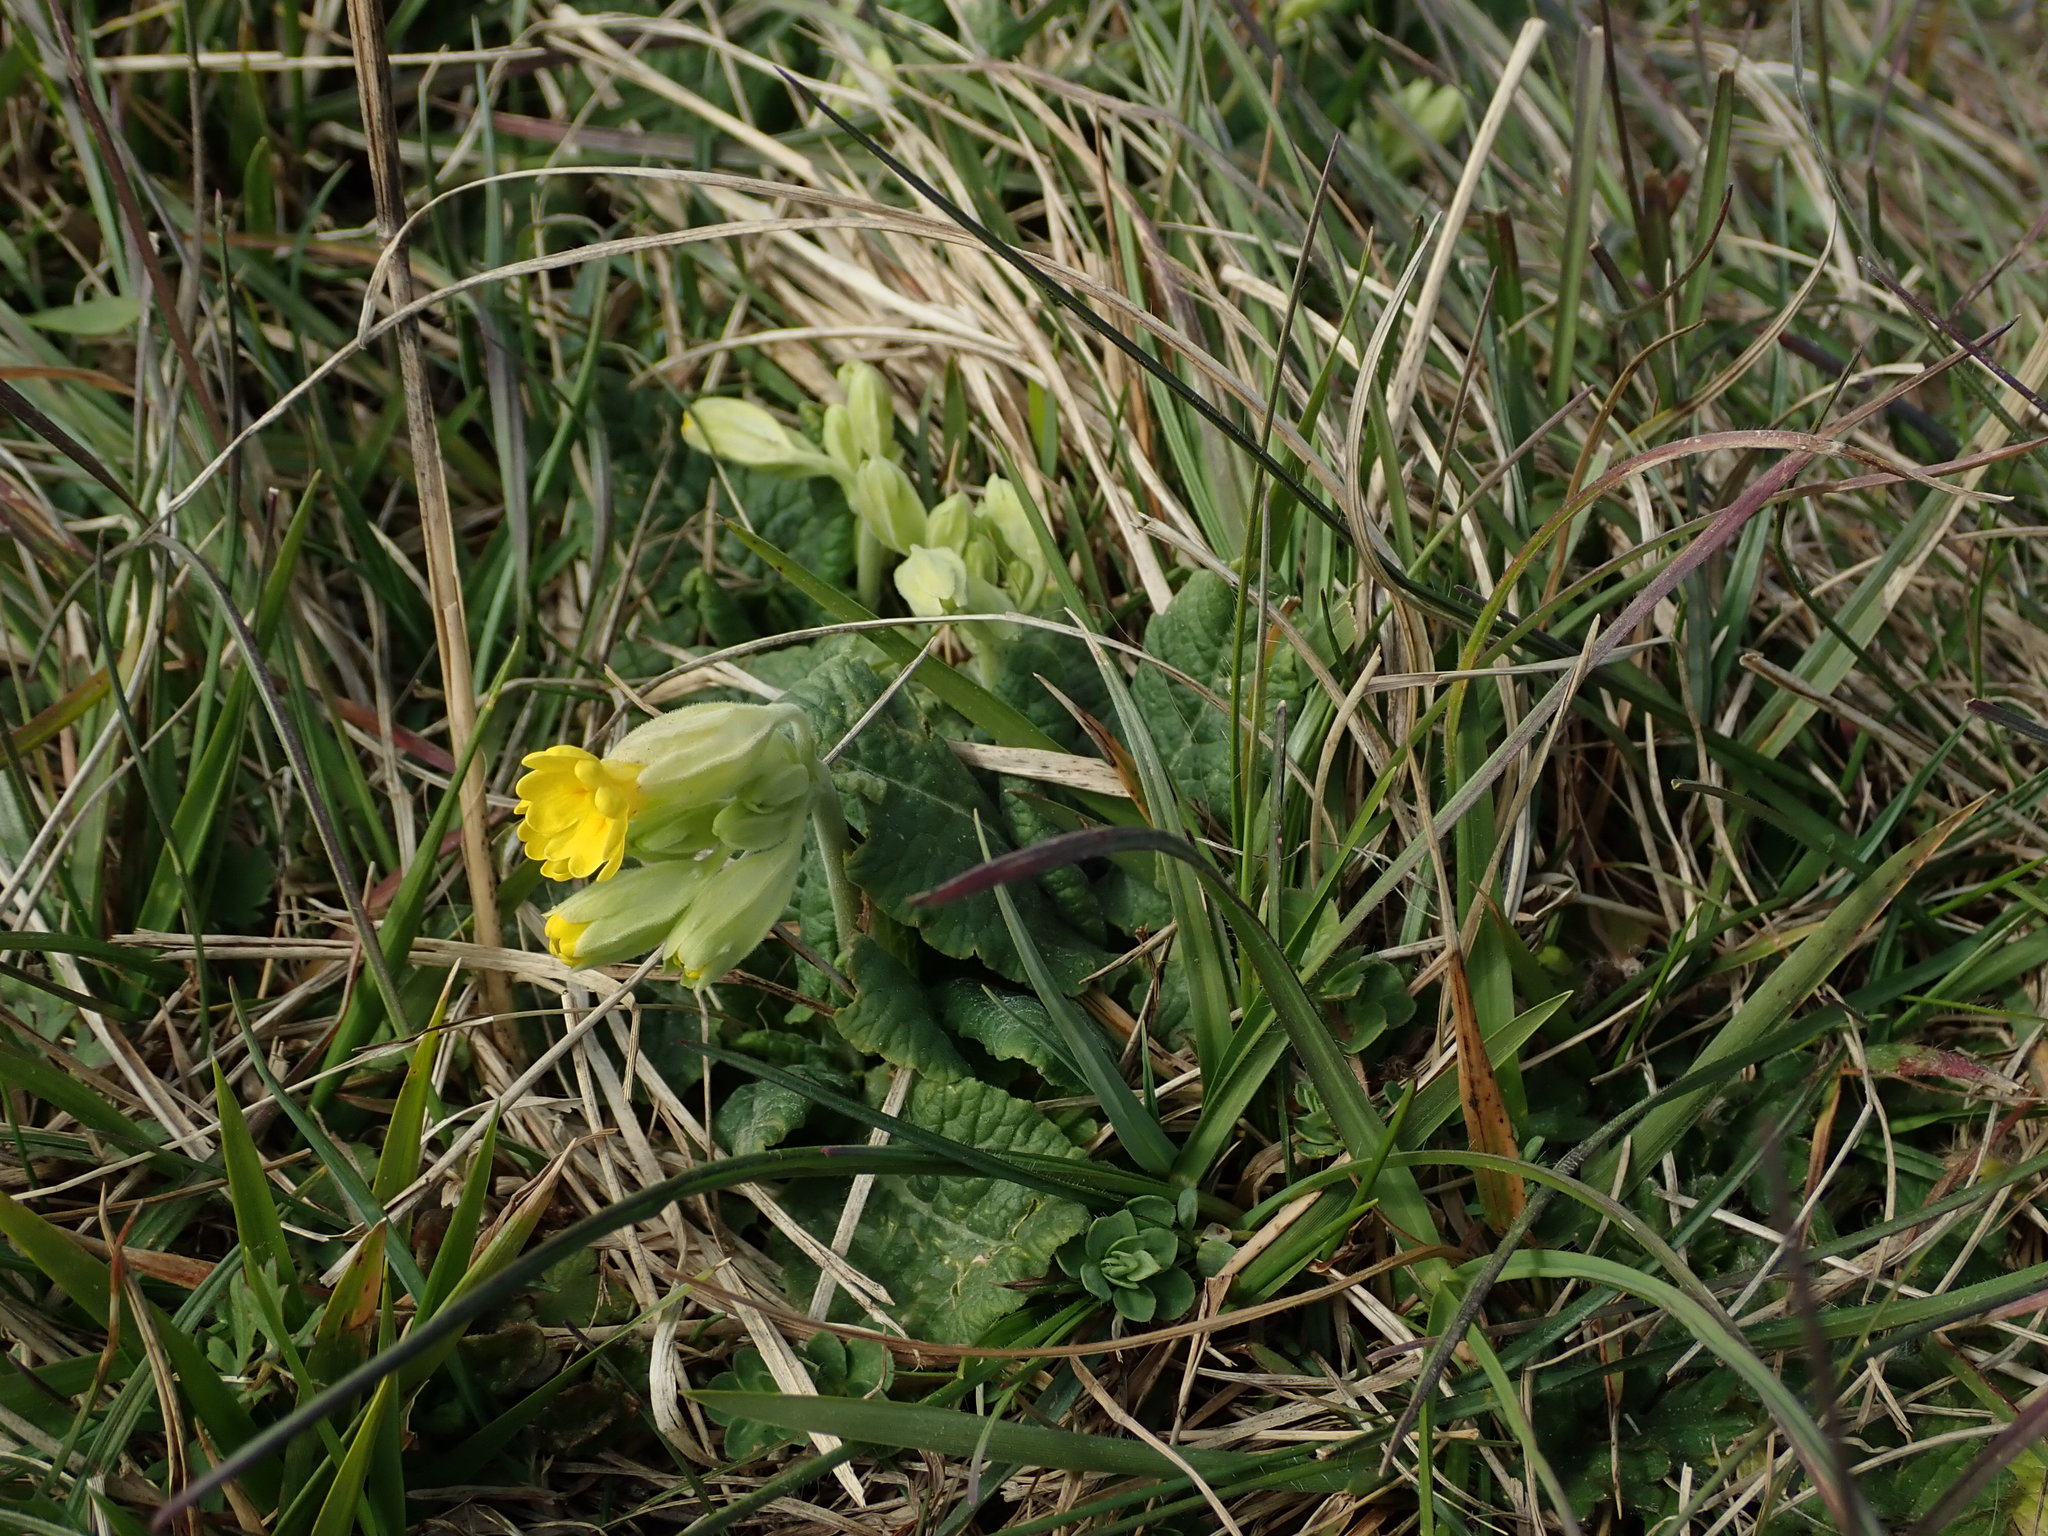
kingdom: Plantae
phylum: Tracheophyta
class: Magnoliopsida
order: Ericales
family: Primulaceae
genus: Primula
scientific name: Primula veris
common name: Cowslip
